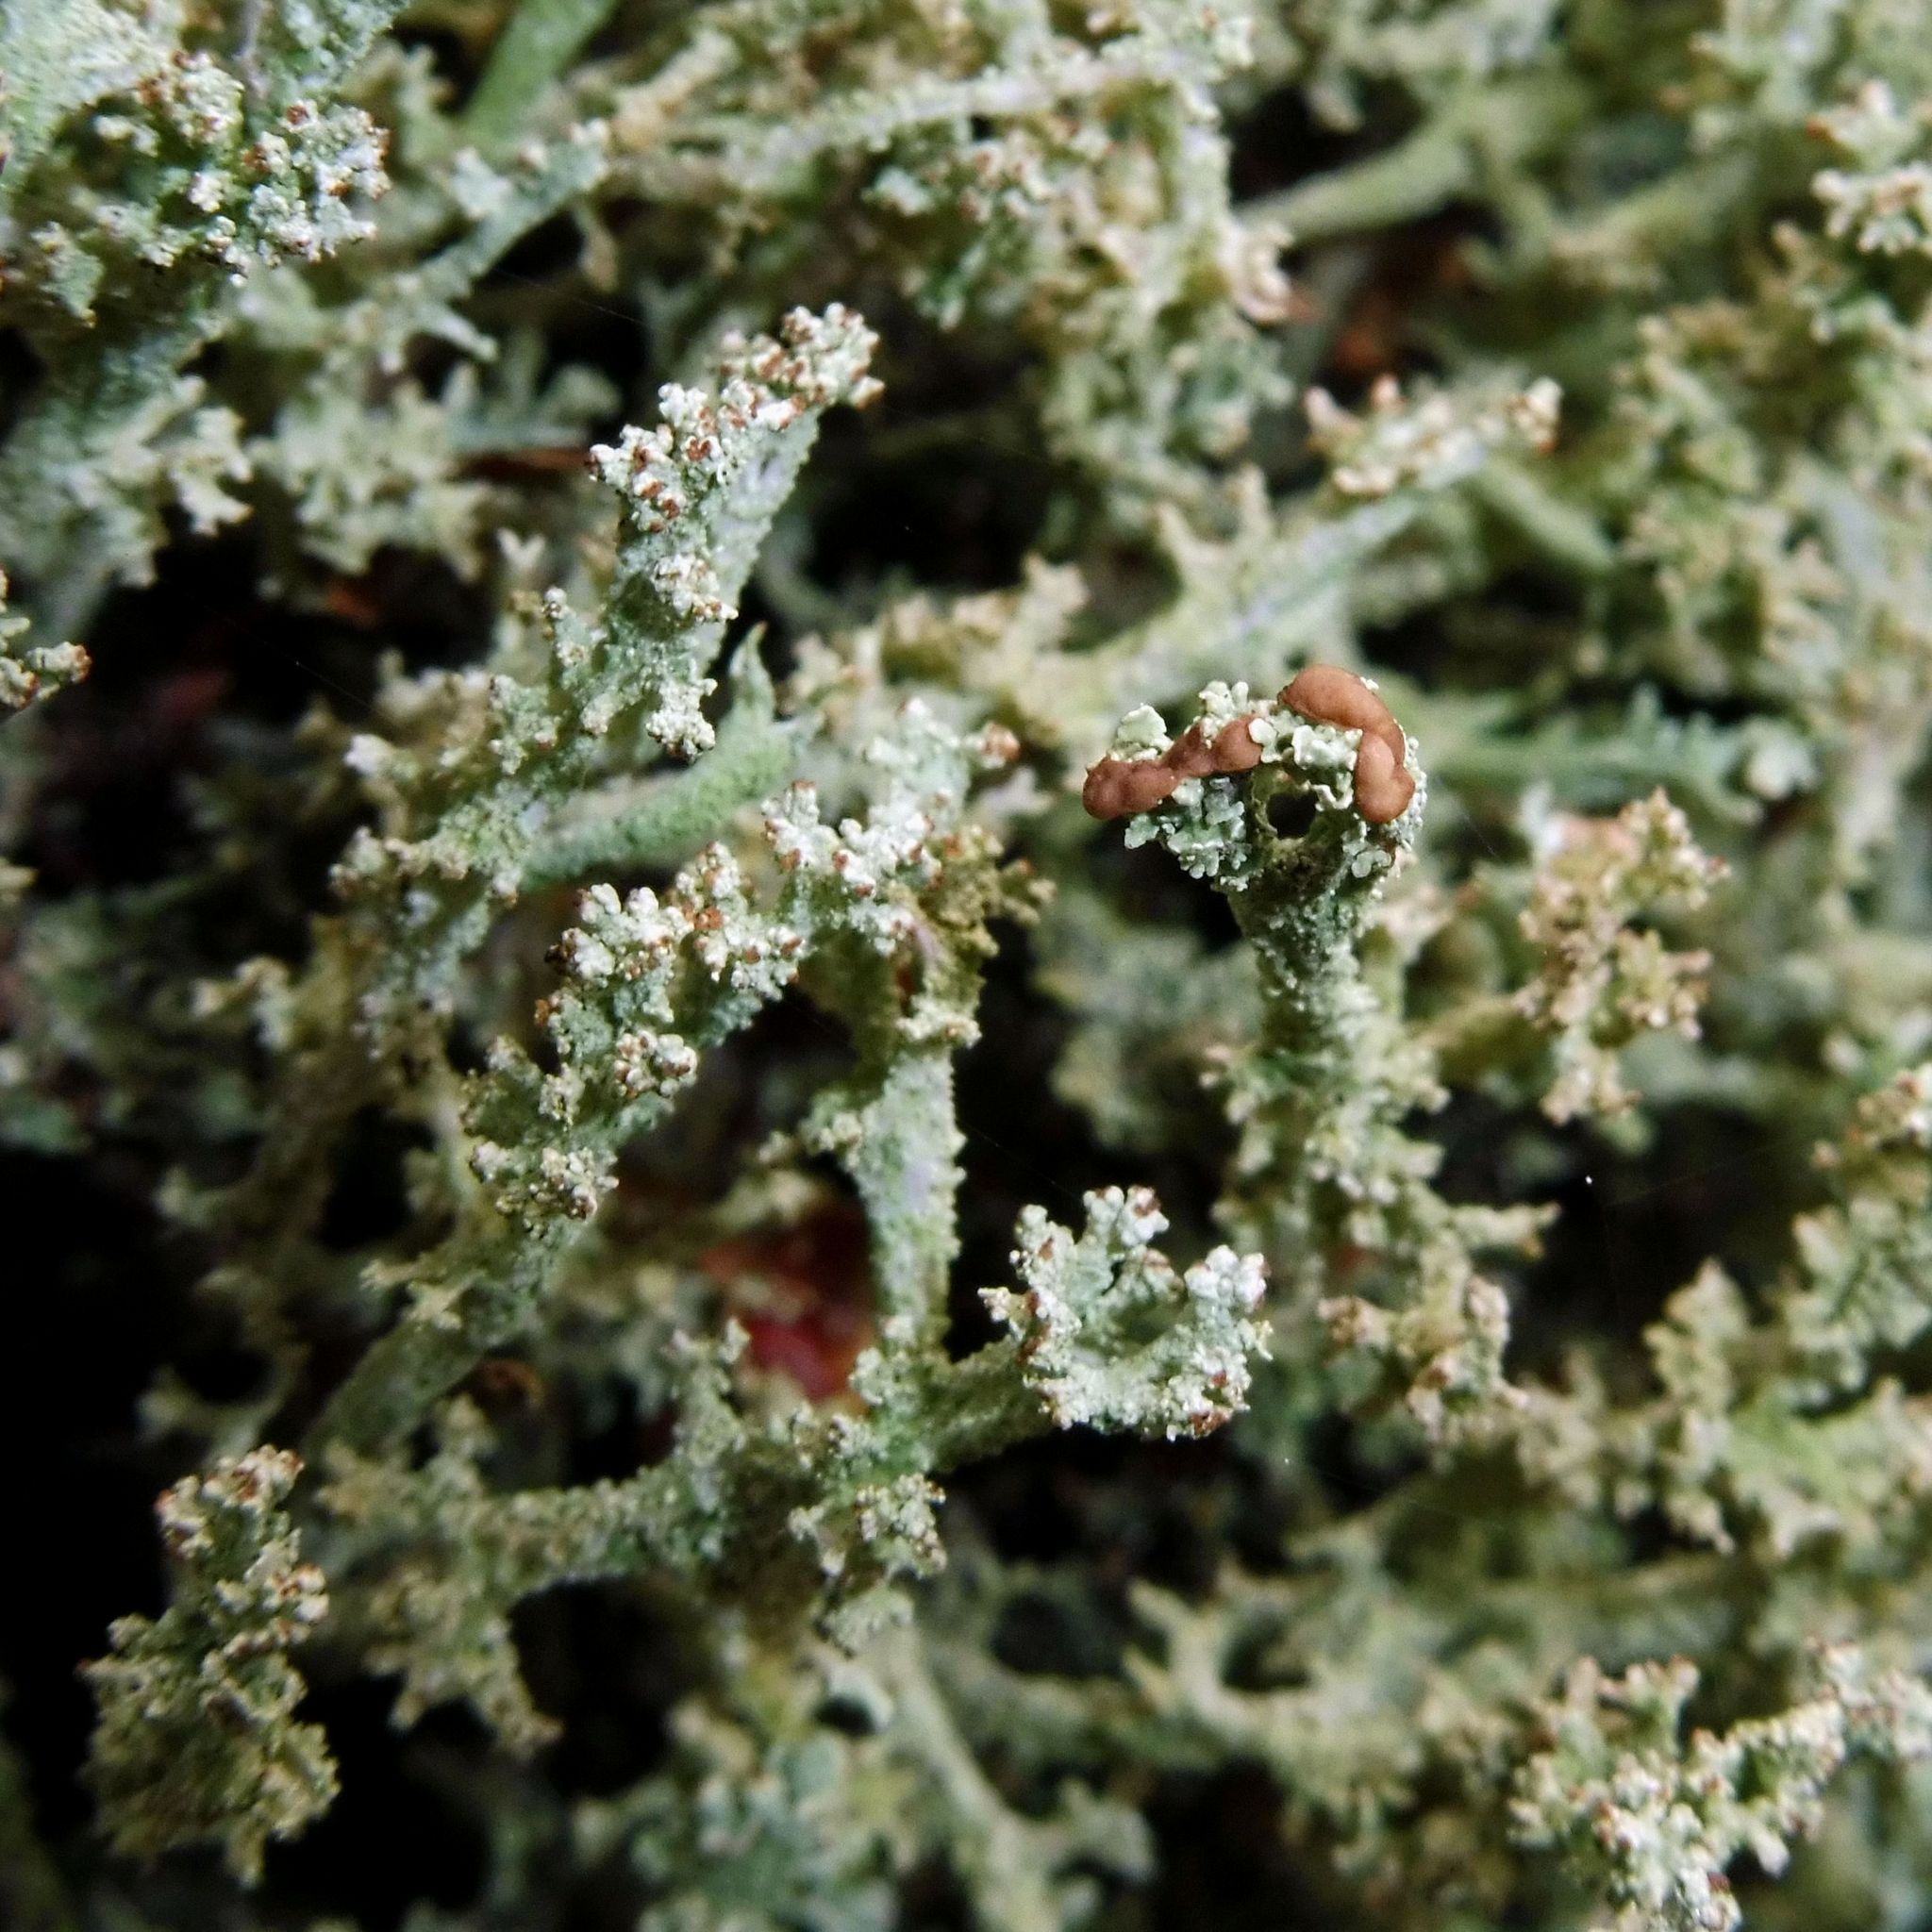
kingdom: Fungi
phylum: Ascomycota
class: Lecanoromycetes
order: Lecanorales
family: Cladoniaceae
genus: Cladonia
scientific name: Cladonia ramulosa
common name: Branched pixie-cup lichen
